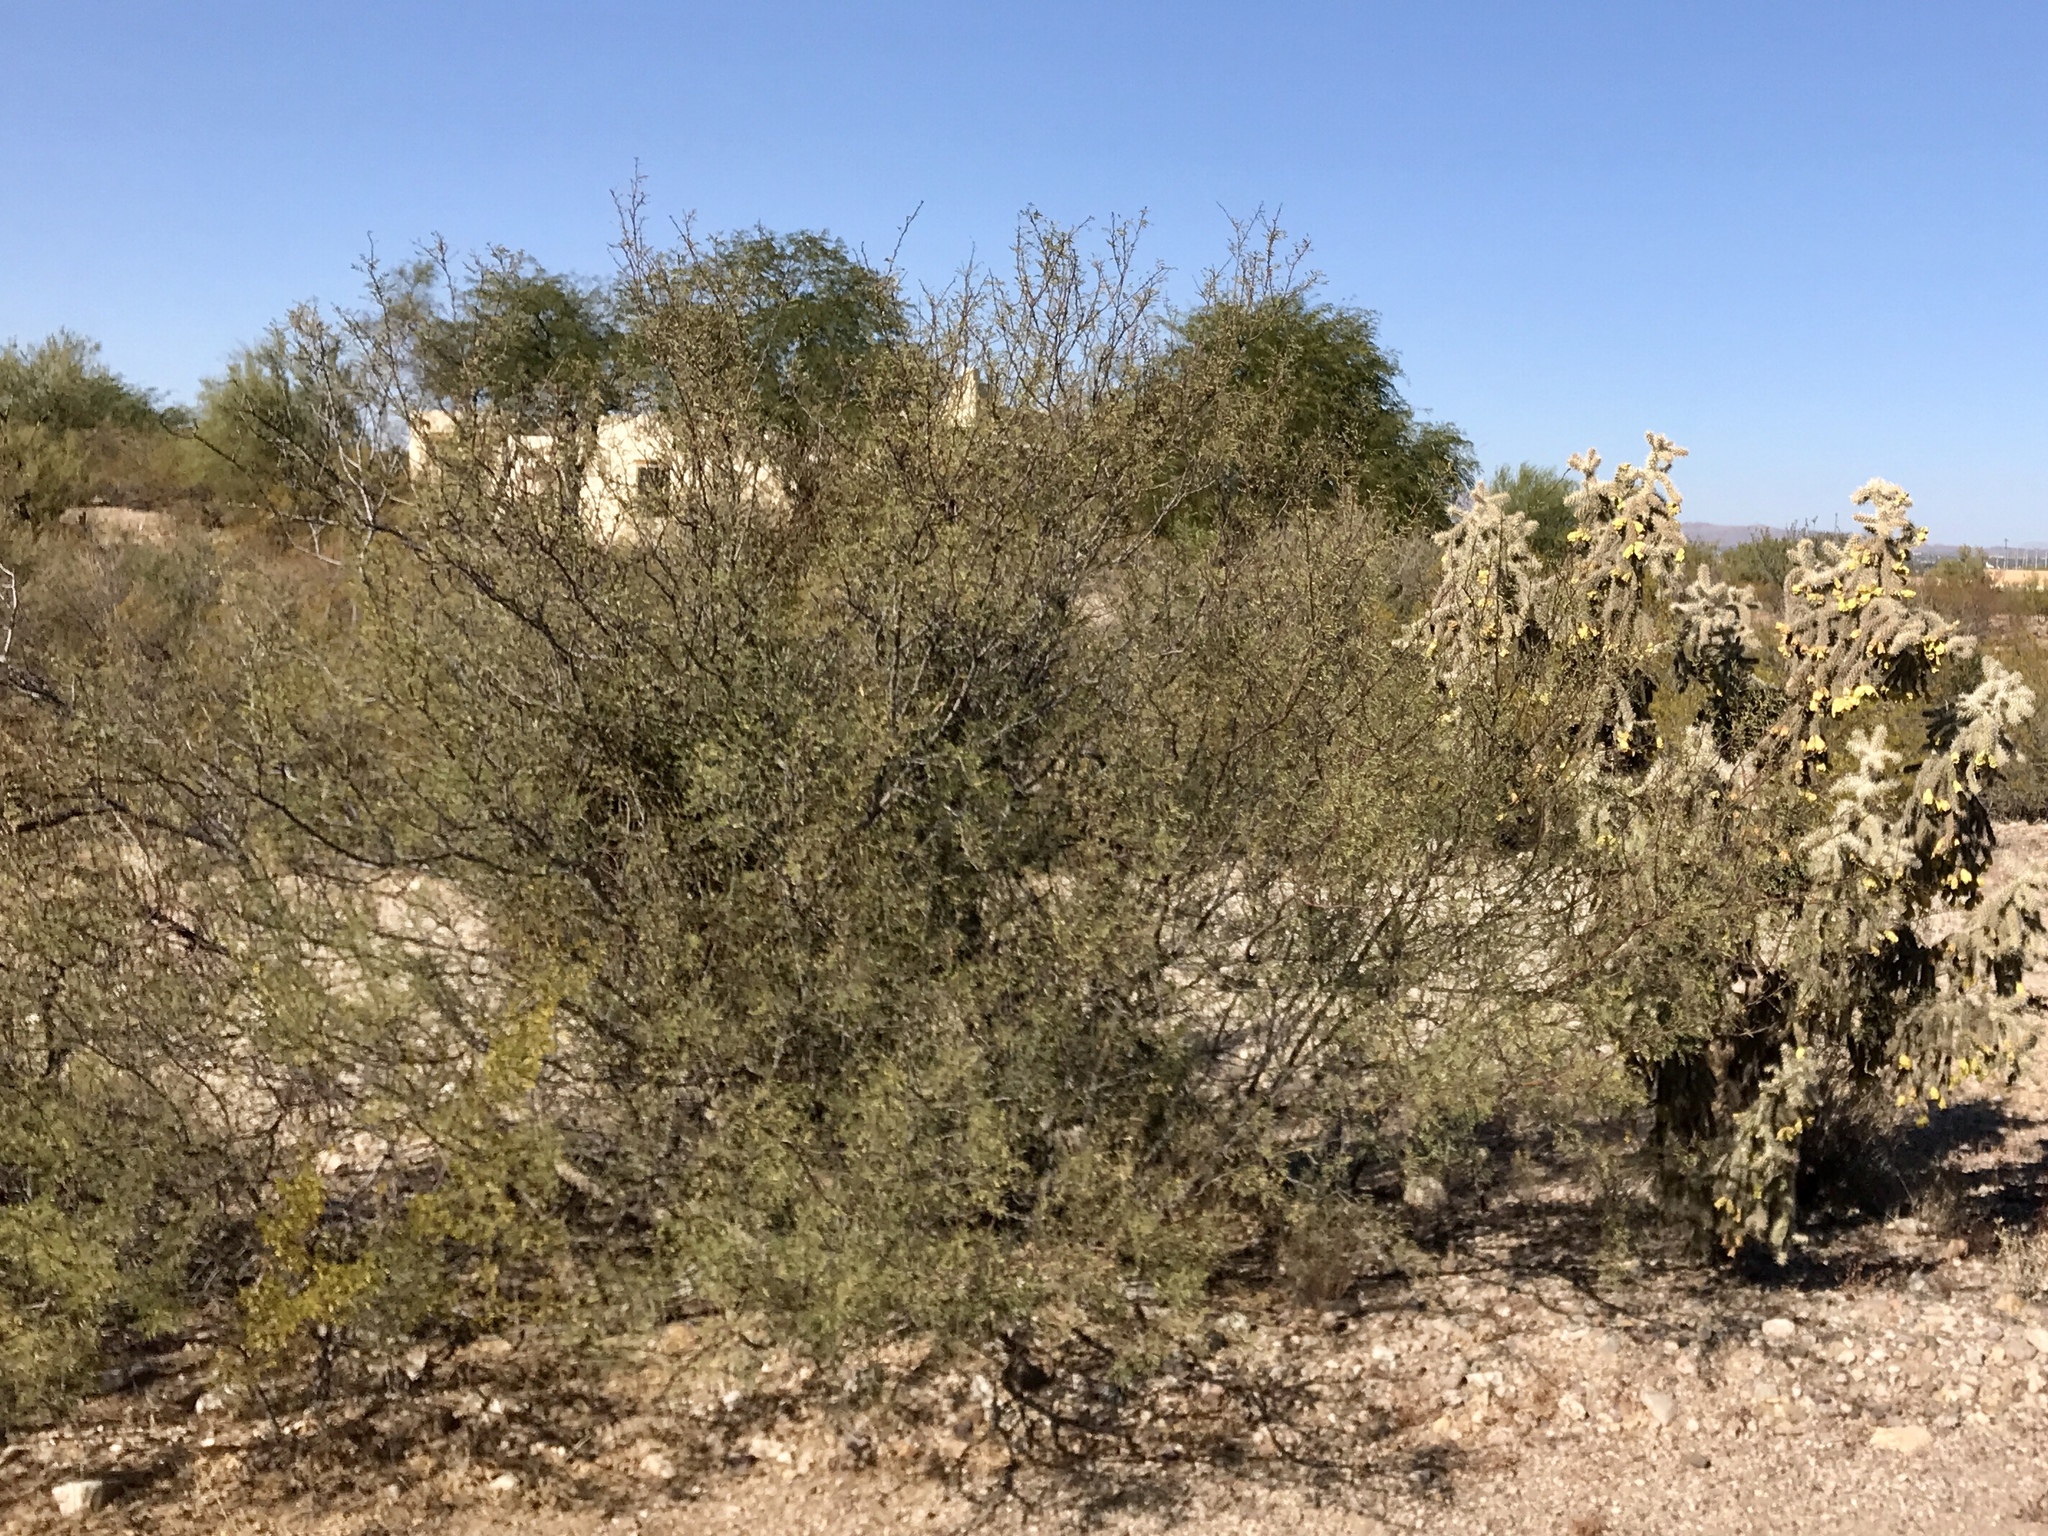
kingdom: Plantae
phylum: Tracheophyta
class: Magnoliopsida
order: Zygophyllales
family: Zygophyllaceae
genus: Larrea
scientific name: Larrea tridentata
